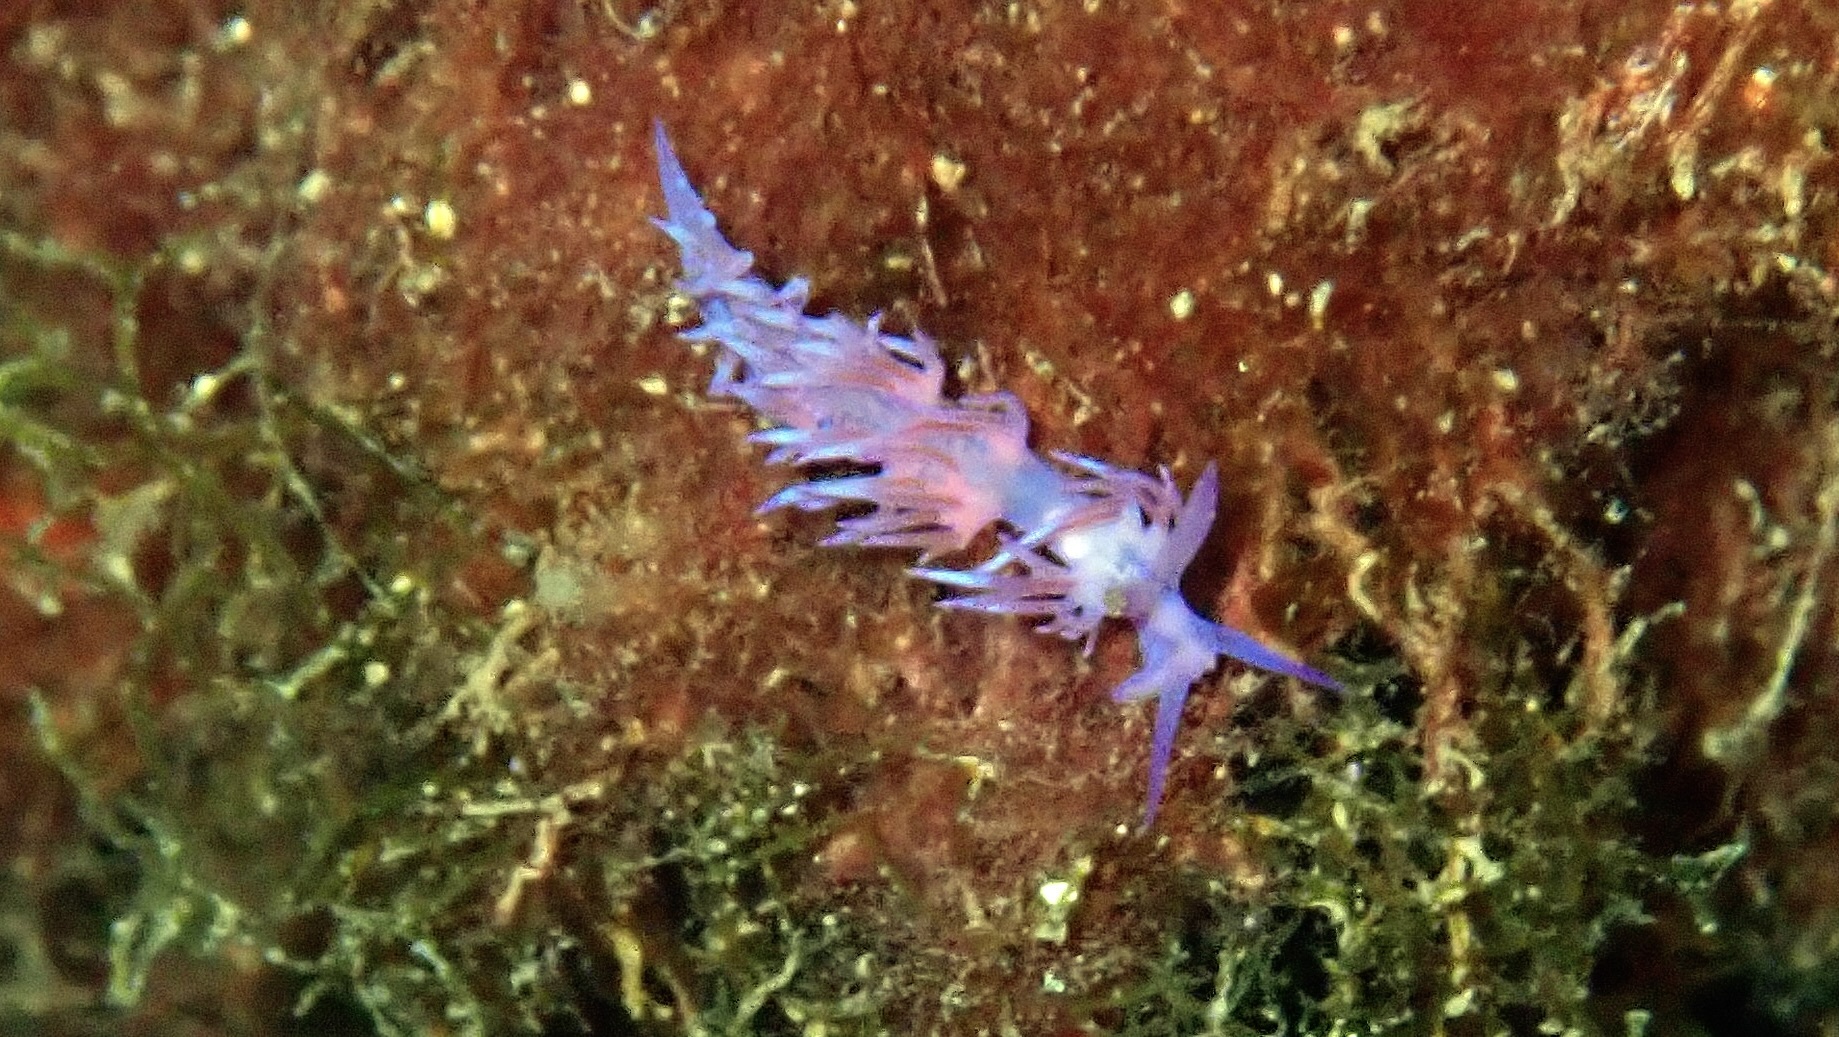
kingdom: Animalia
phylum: Mollusca
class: Gastropoda
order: Nudibranchia
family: Flabellinidae
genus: Flabellina
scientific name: Flabellina affinis
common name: Mediterranean violet aeolid
